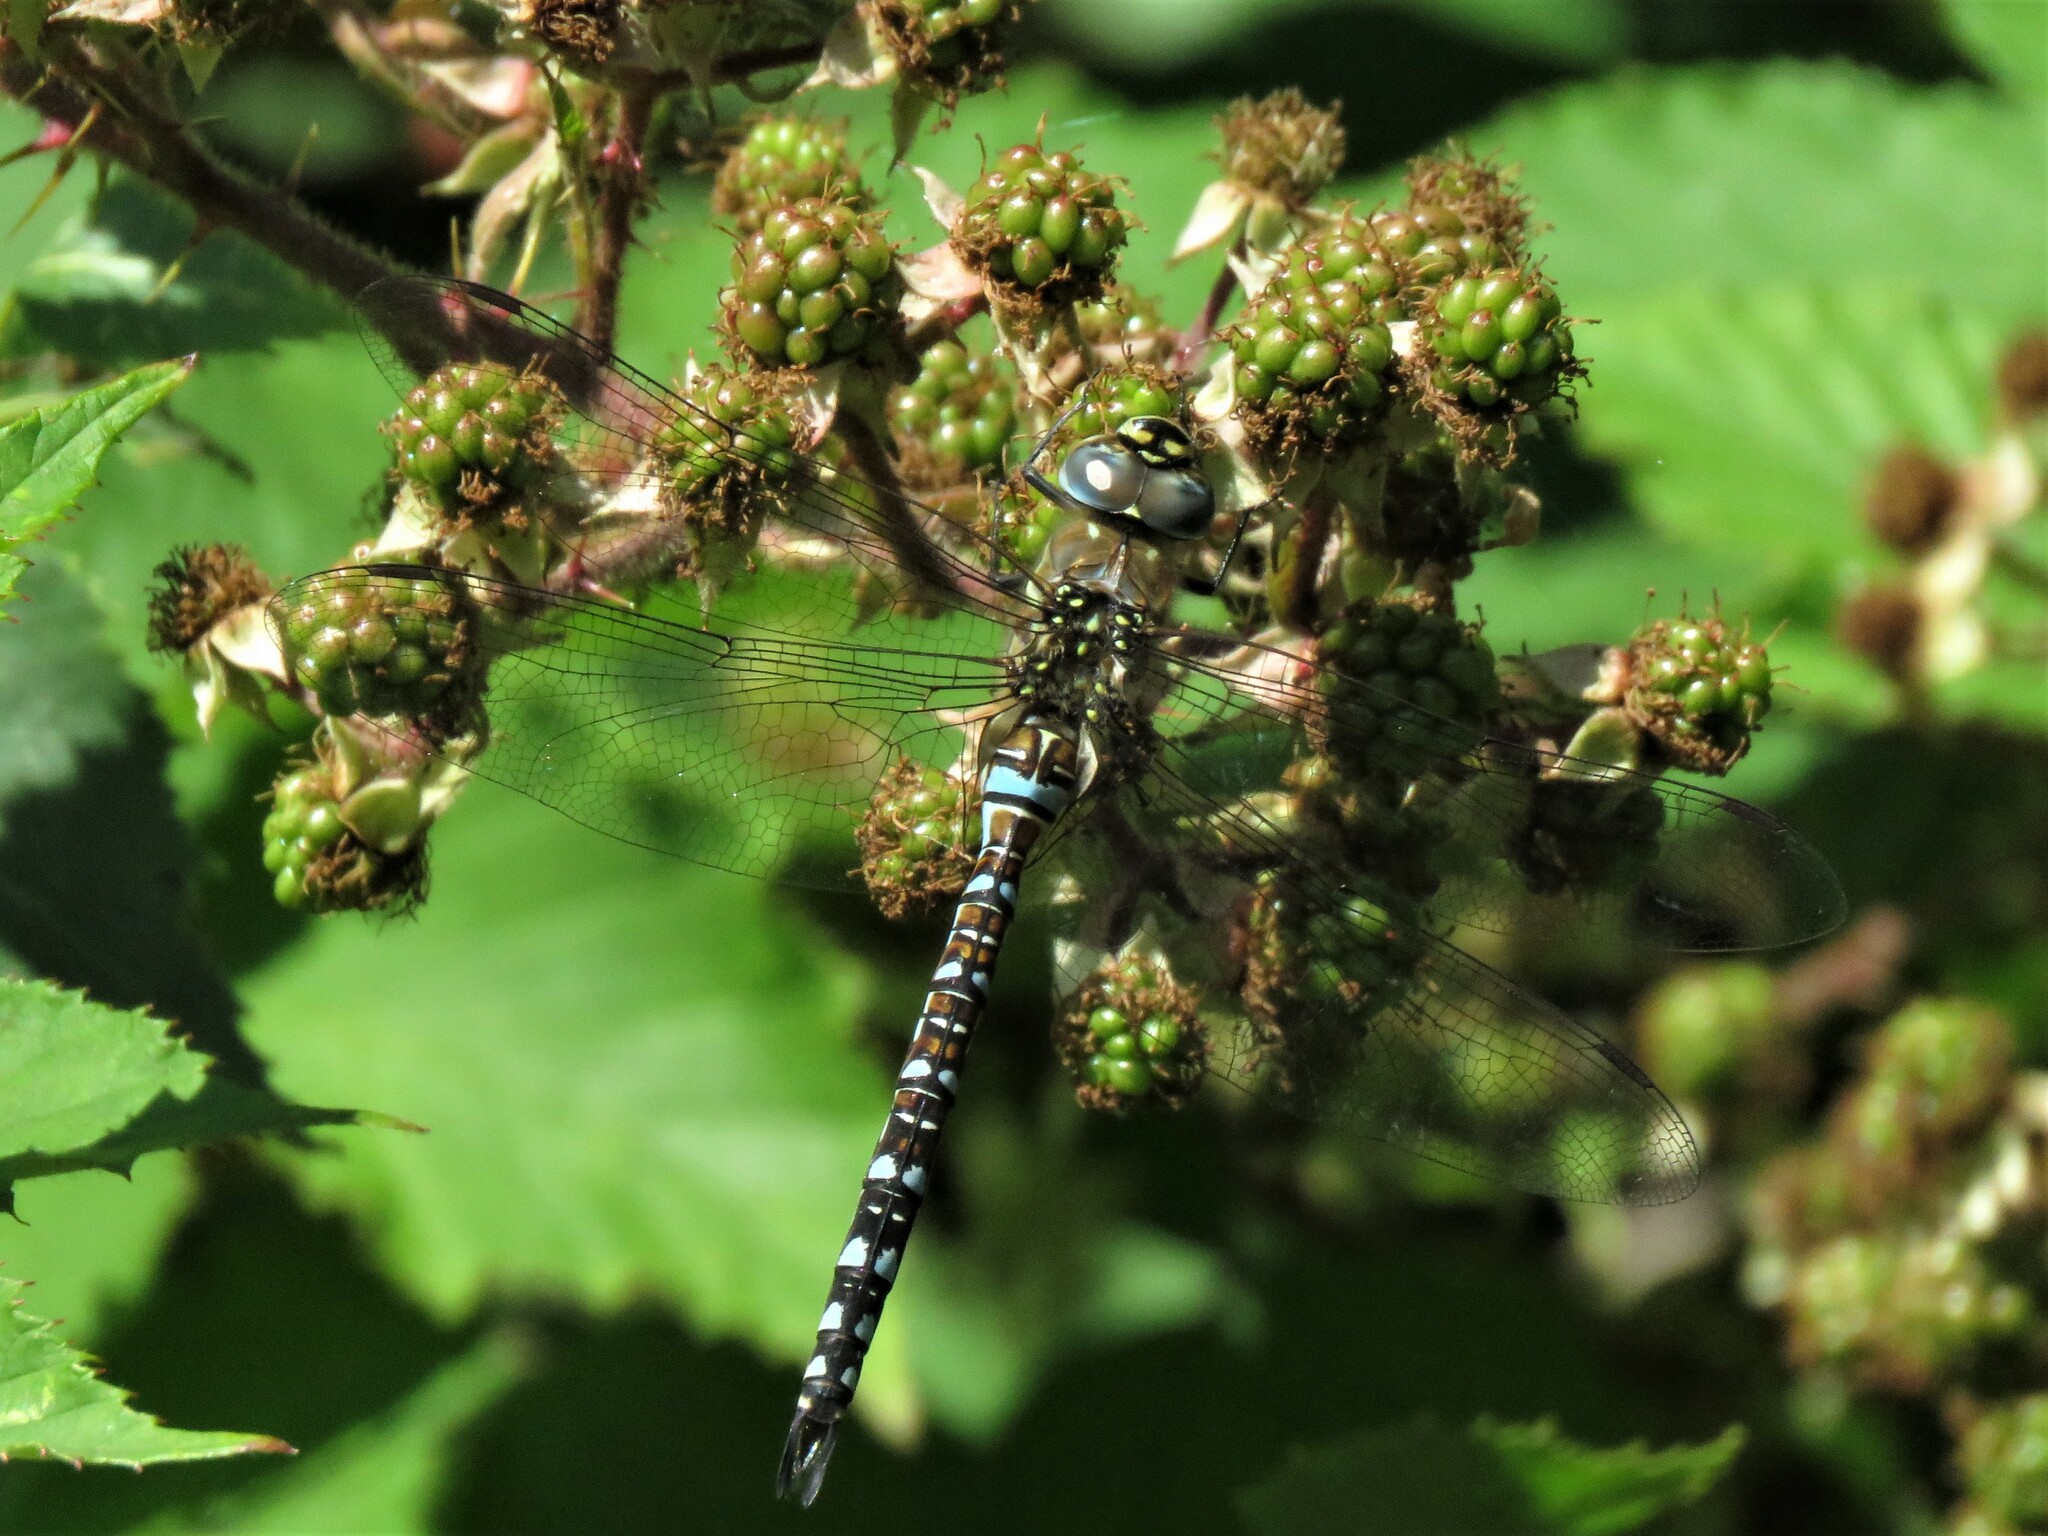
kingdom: Animalia
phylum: Arthropoda
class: Insecta
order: Odonata
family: Aeshnidae
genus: Aeshna
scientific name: Aeshna mixta
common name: Migrant hawker
